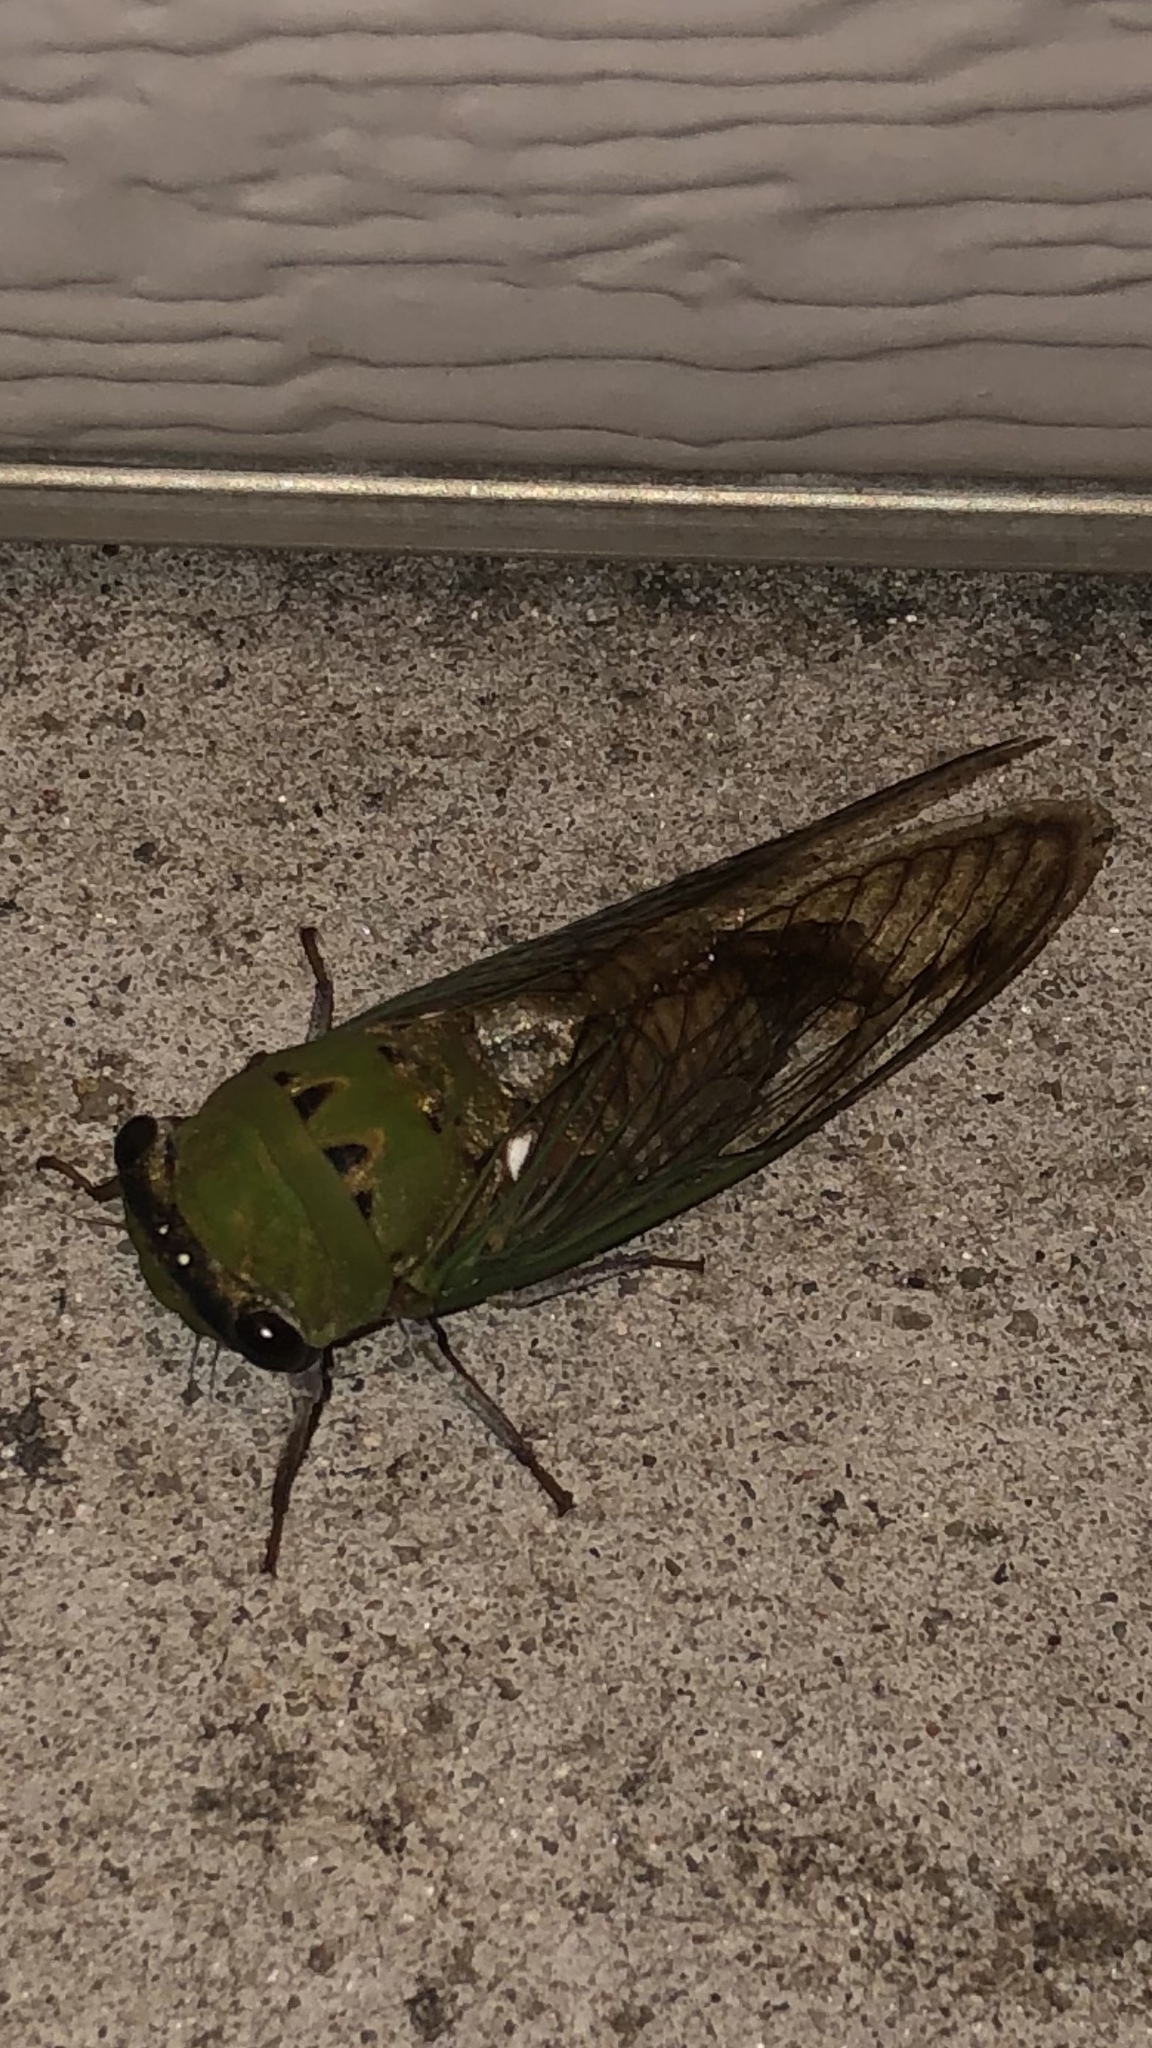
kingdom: Animalia
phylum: Arthropoda
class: Insecta
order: Hemiptera
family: Cicadidae
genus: Neotibicen
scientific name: Neotibicen superbus
